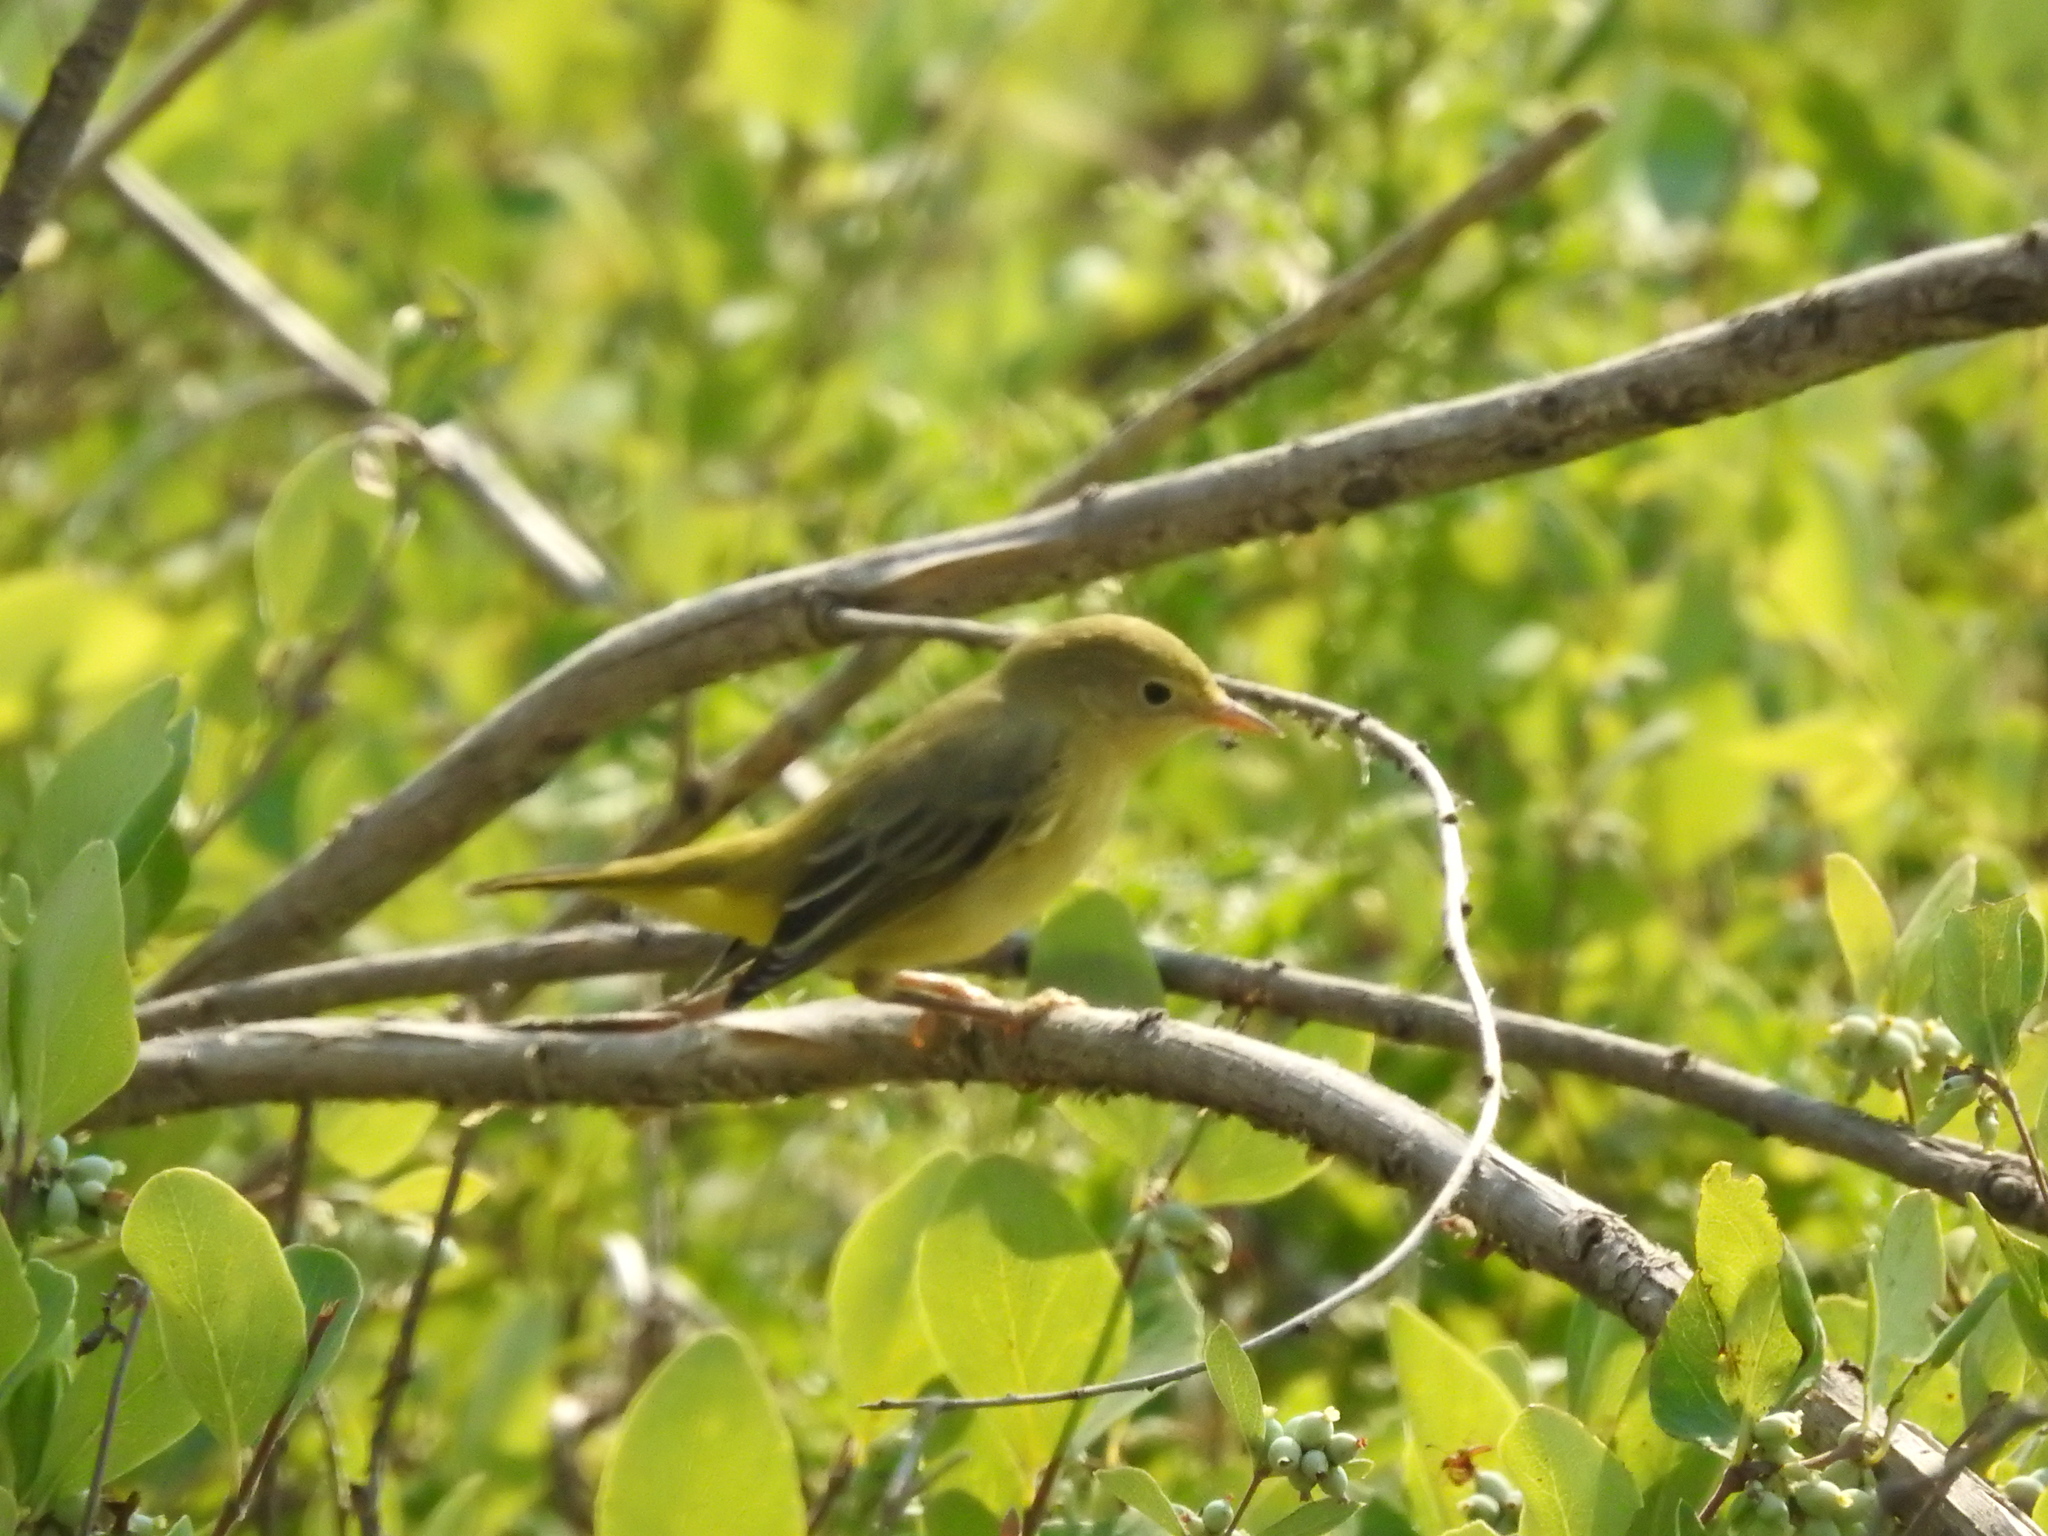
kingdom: Animalia
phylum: Chordata
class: Aves
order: Passeriformes
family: Parulidae
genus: Setophaga
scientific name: Setophaga petechia
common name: Yellow warbler
